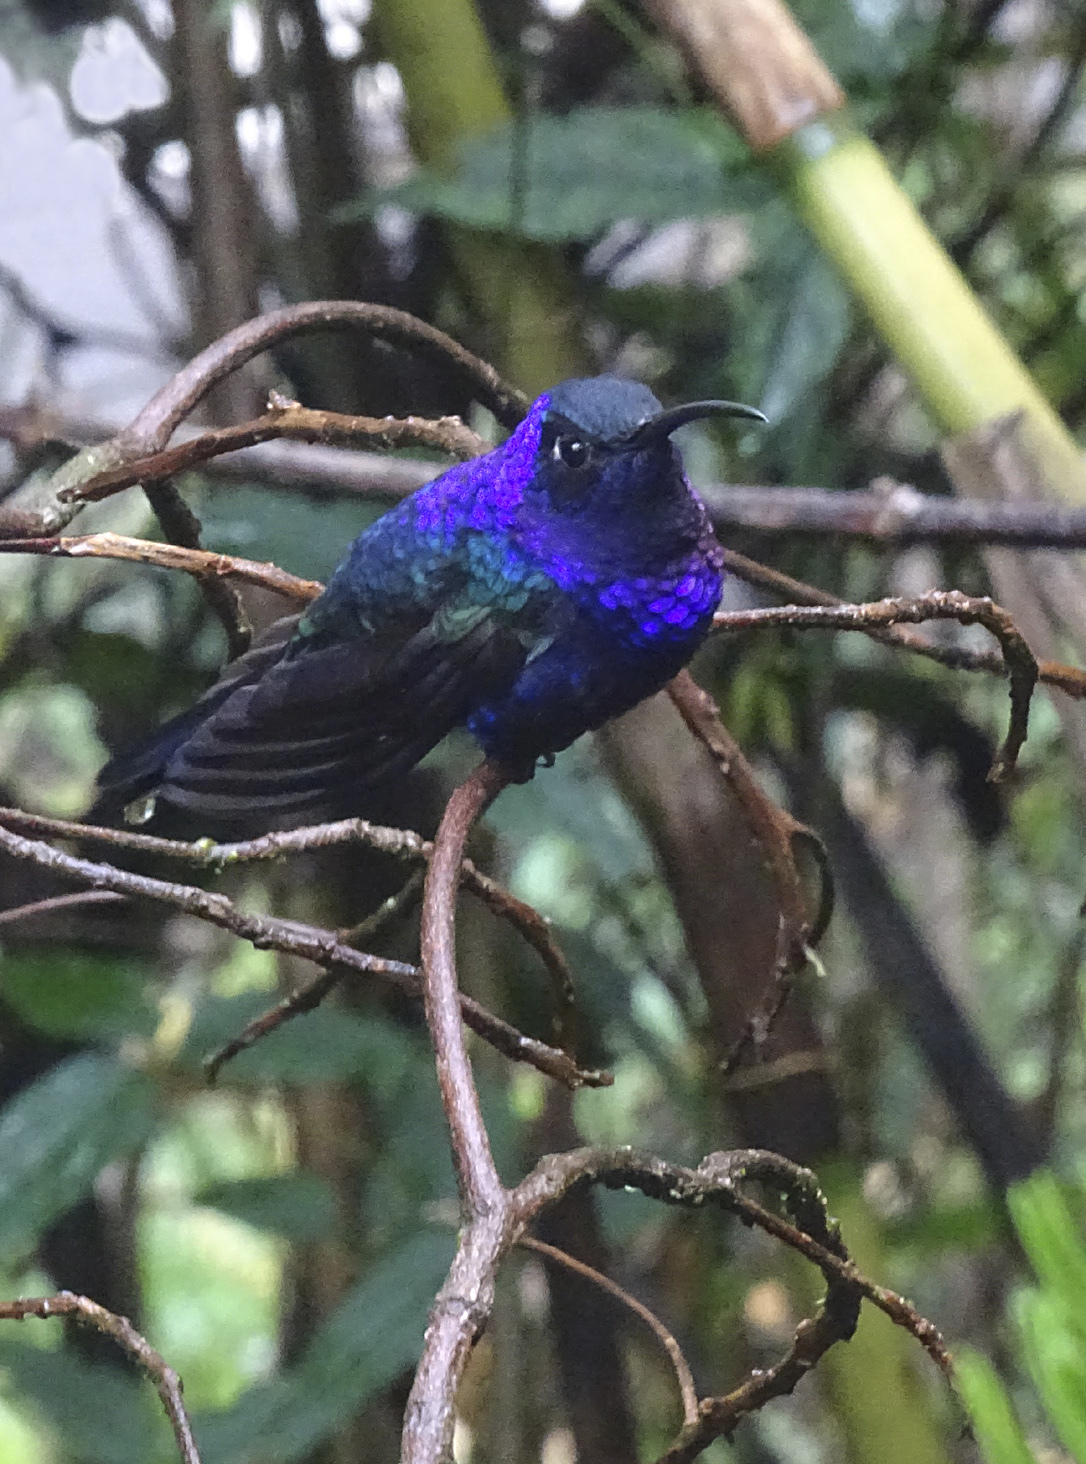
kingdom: Animalia
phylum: Chordata
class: Aves
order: Apodiformes
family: Trochilidae
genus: Campylopterus
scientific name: Campylopterus hemileucurus
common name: Violet sabrewing
